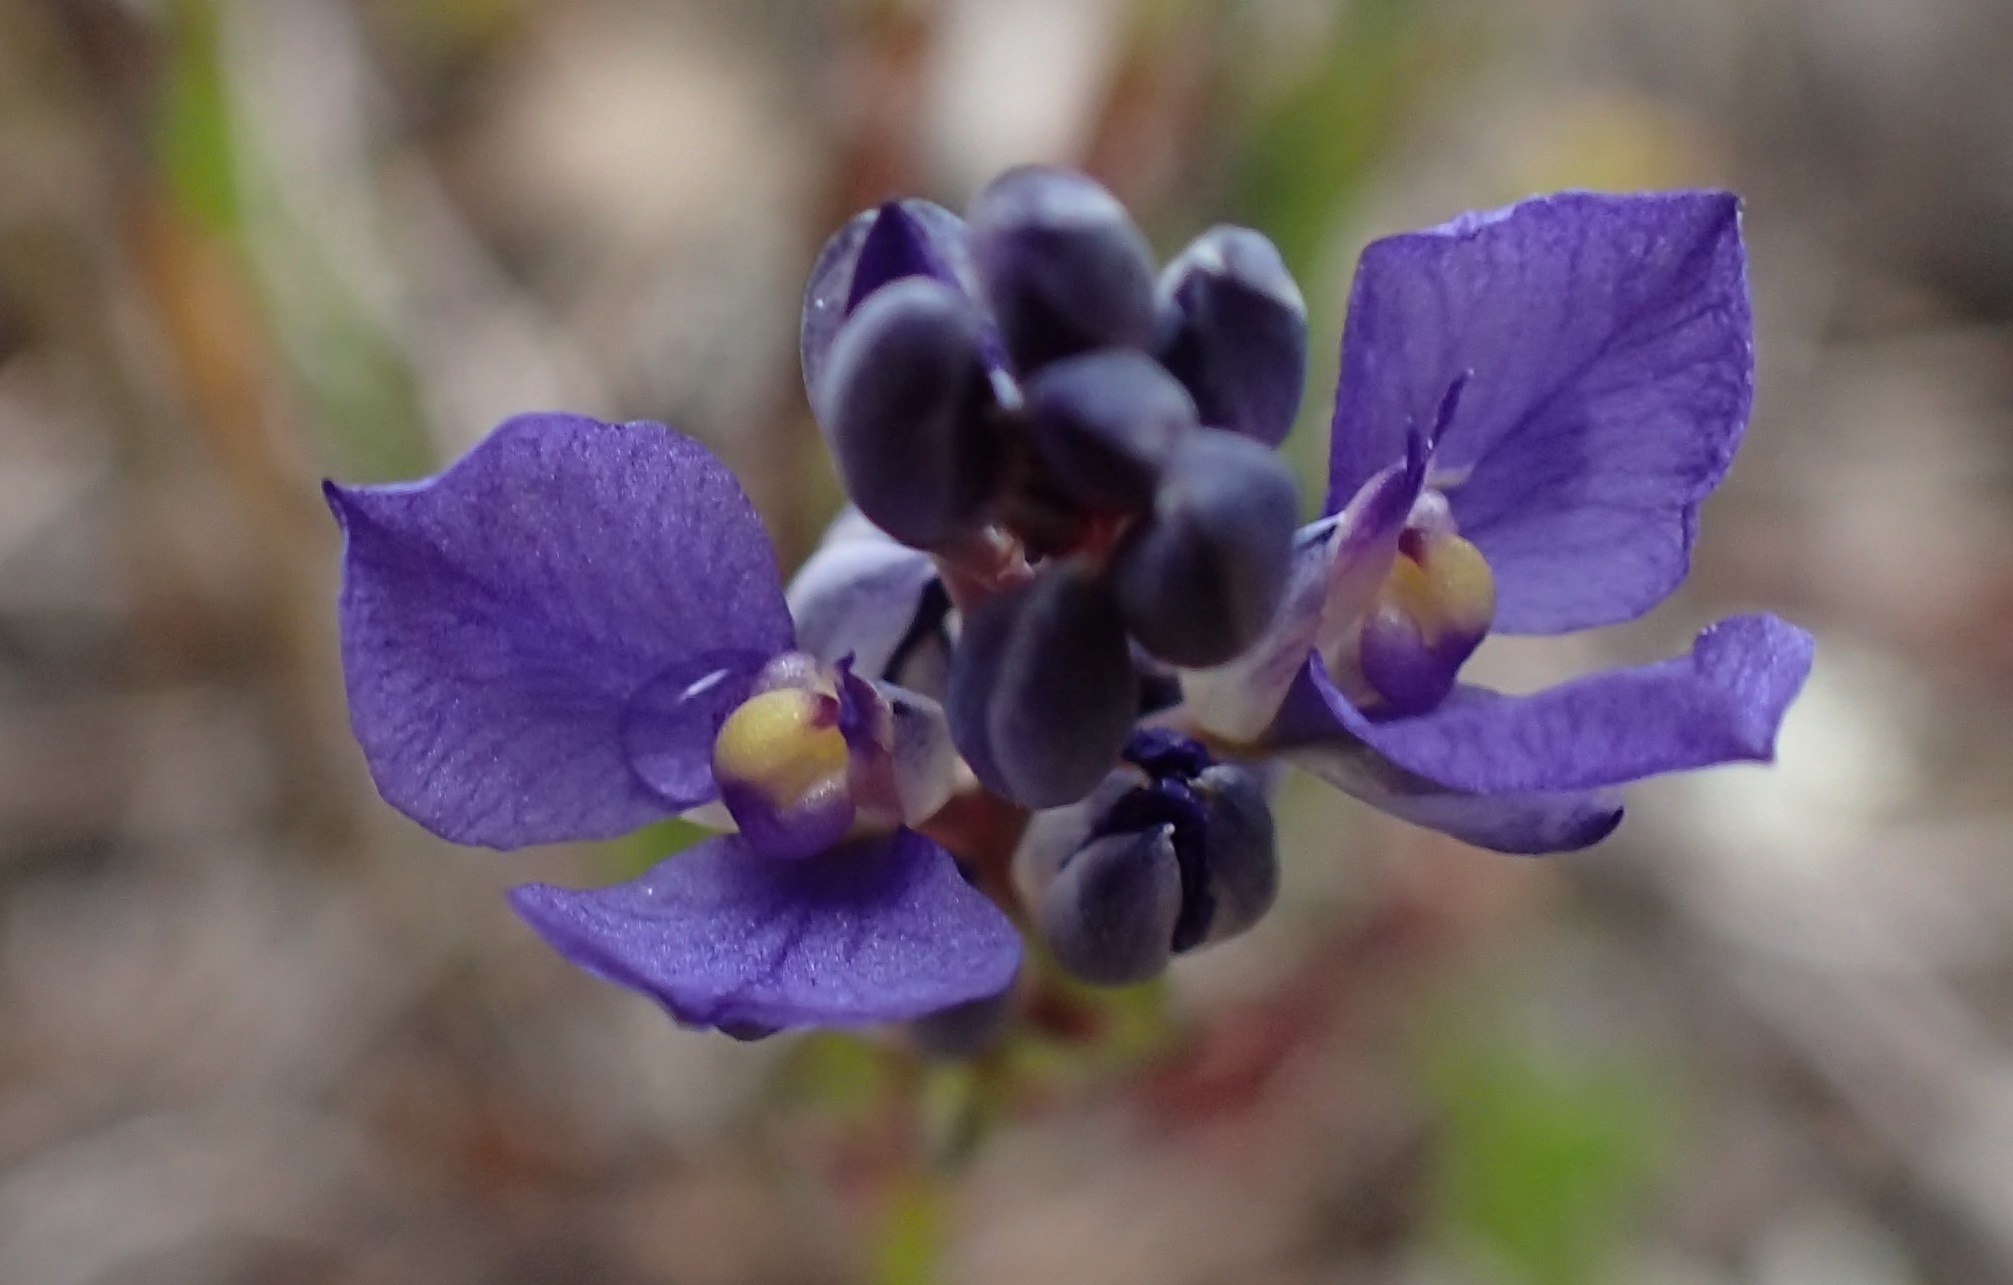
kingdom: Plantae
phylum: Tracheophyta
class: Magnoliopsida
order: Fabales
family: Polygalaceae
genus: Comesperma
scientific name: Comesperma calymega
